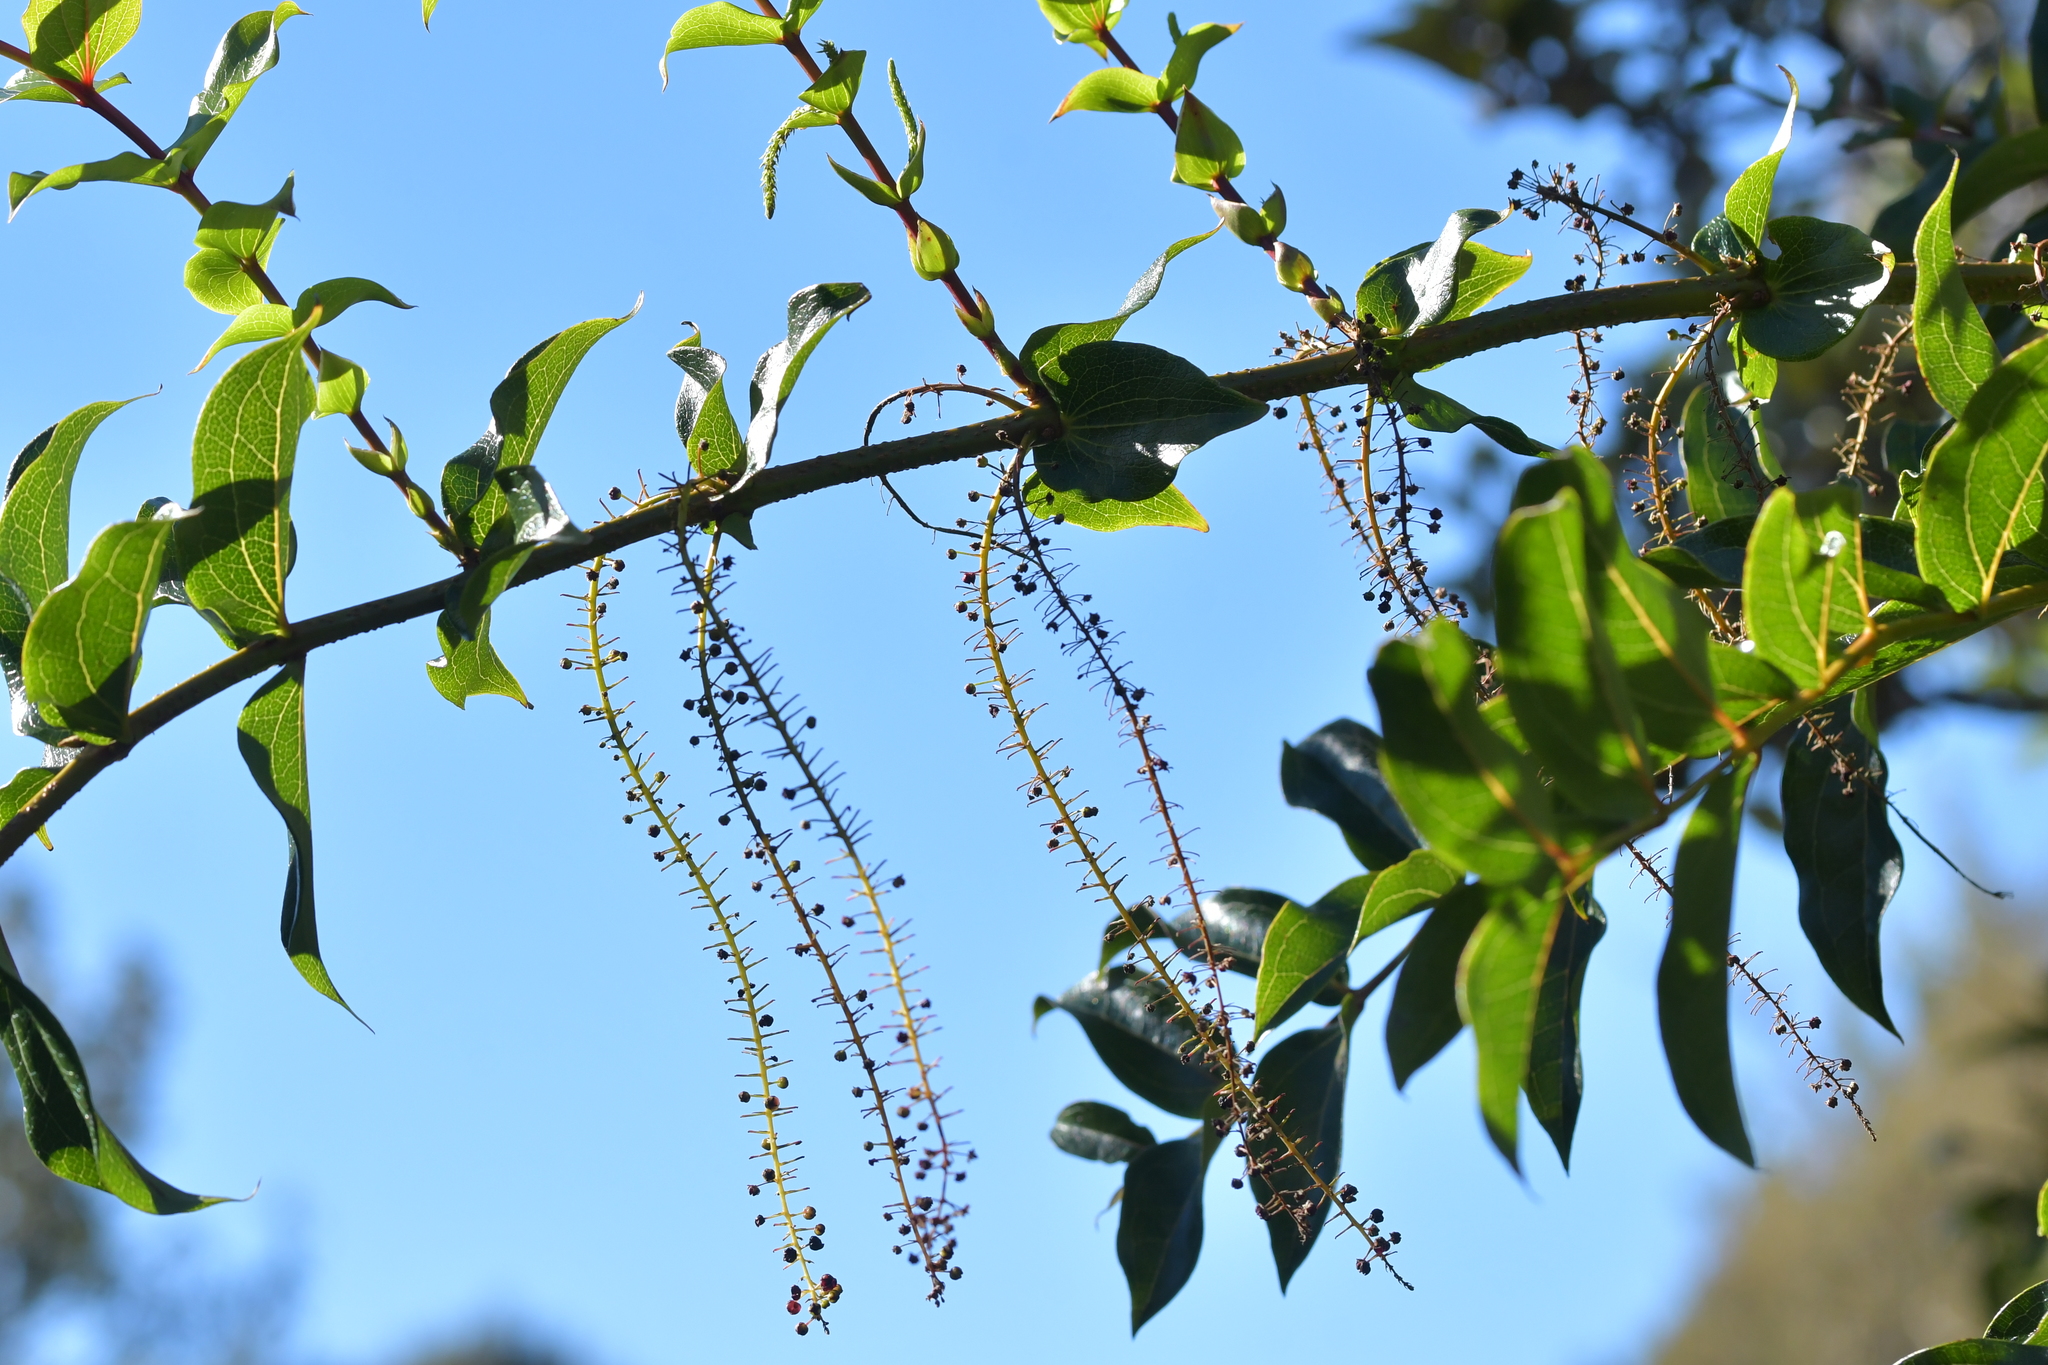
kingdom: Plantae
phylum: Tracheophyta
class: Magnoliopsida
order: Cucurbitales
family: Coriariaceae
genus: Coriaria
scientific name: Coriaria arborea
